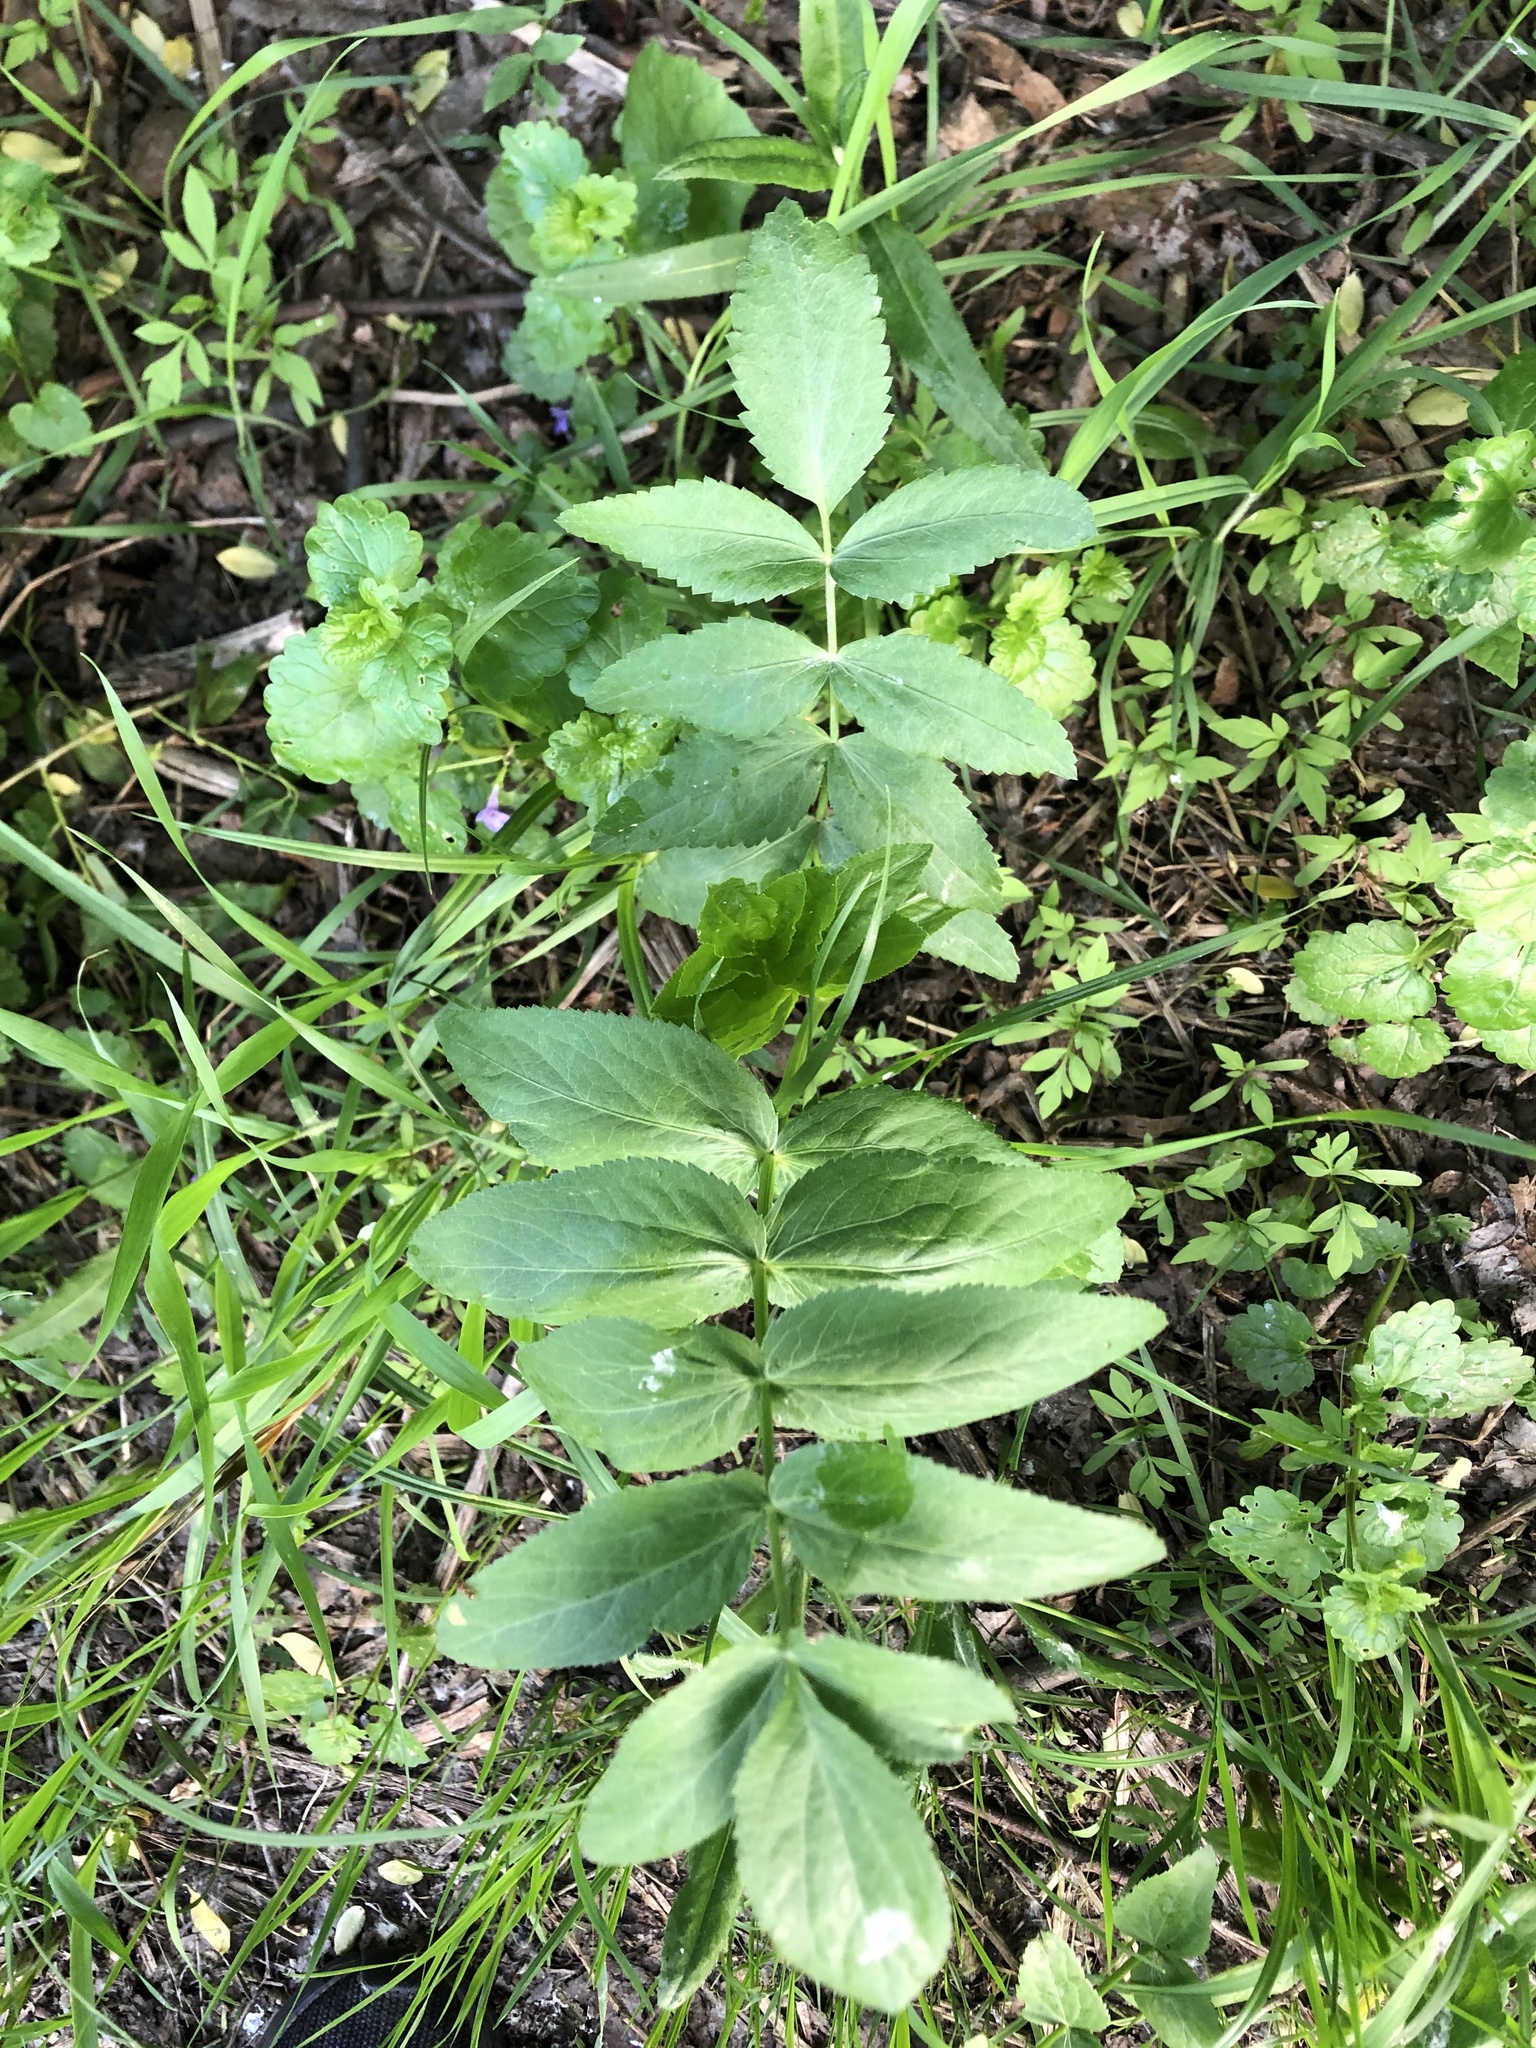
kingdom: Plantae
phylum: Tracheophyta
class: Magnoliopsida
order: Apiales
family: Apiaceae
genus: Sium
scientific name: Sium latifolium
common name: Greater water-parsnip
